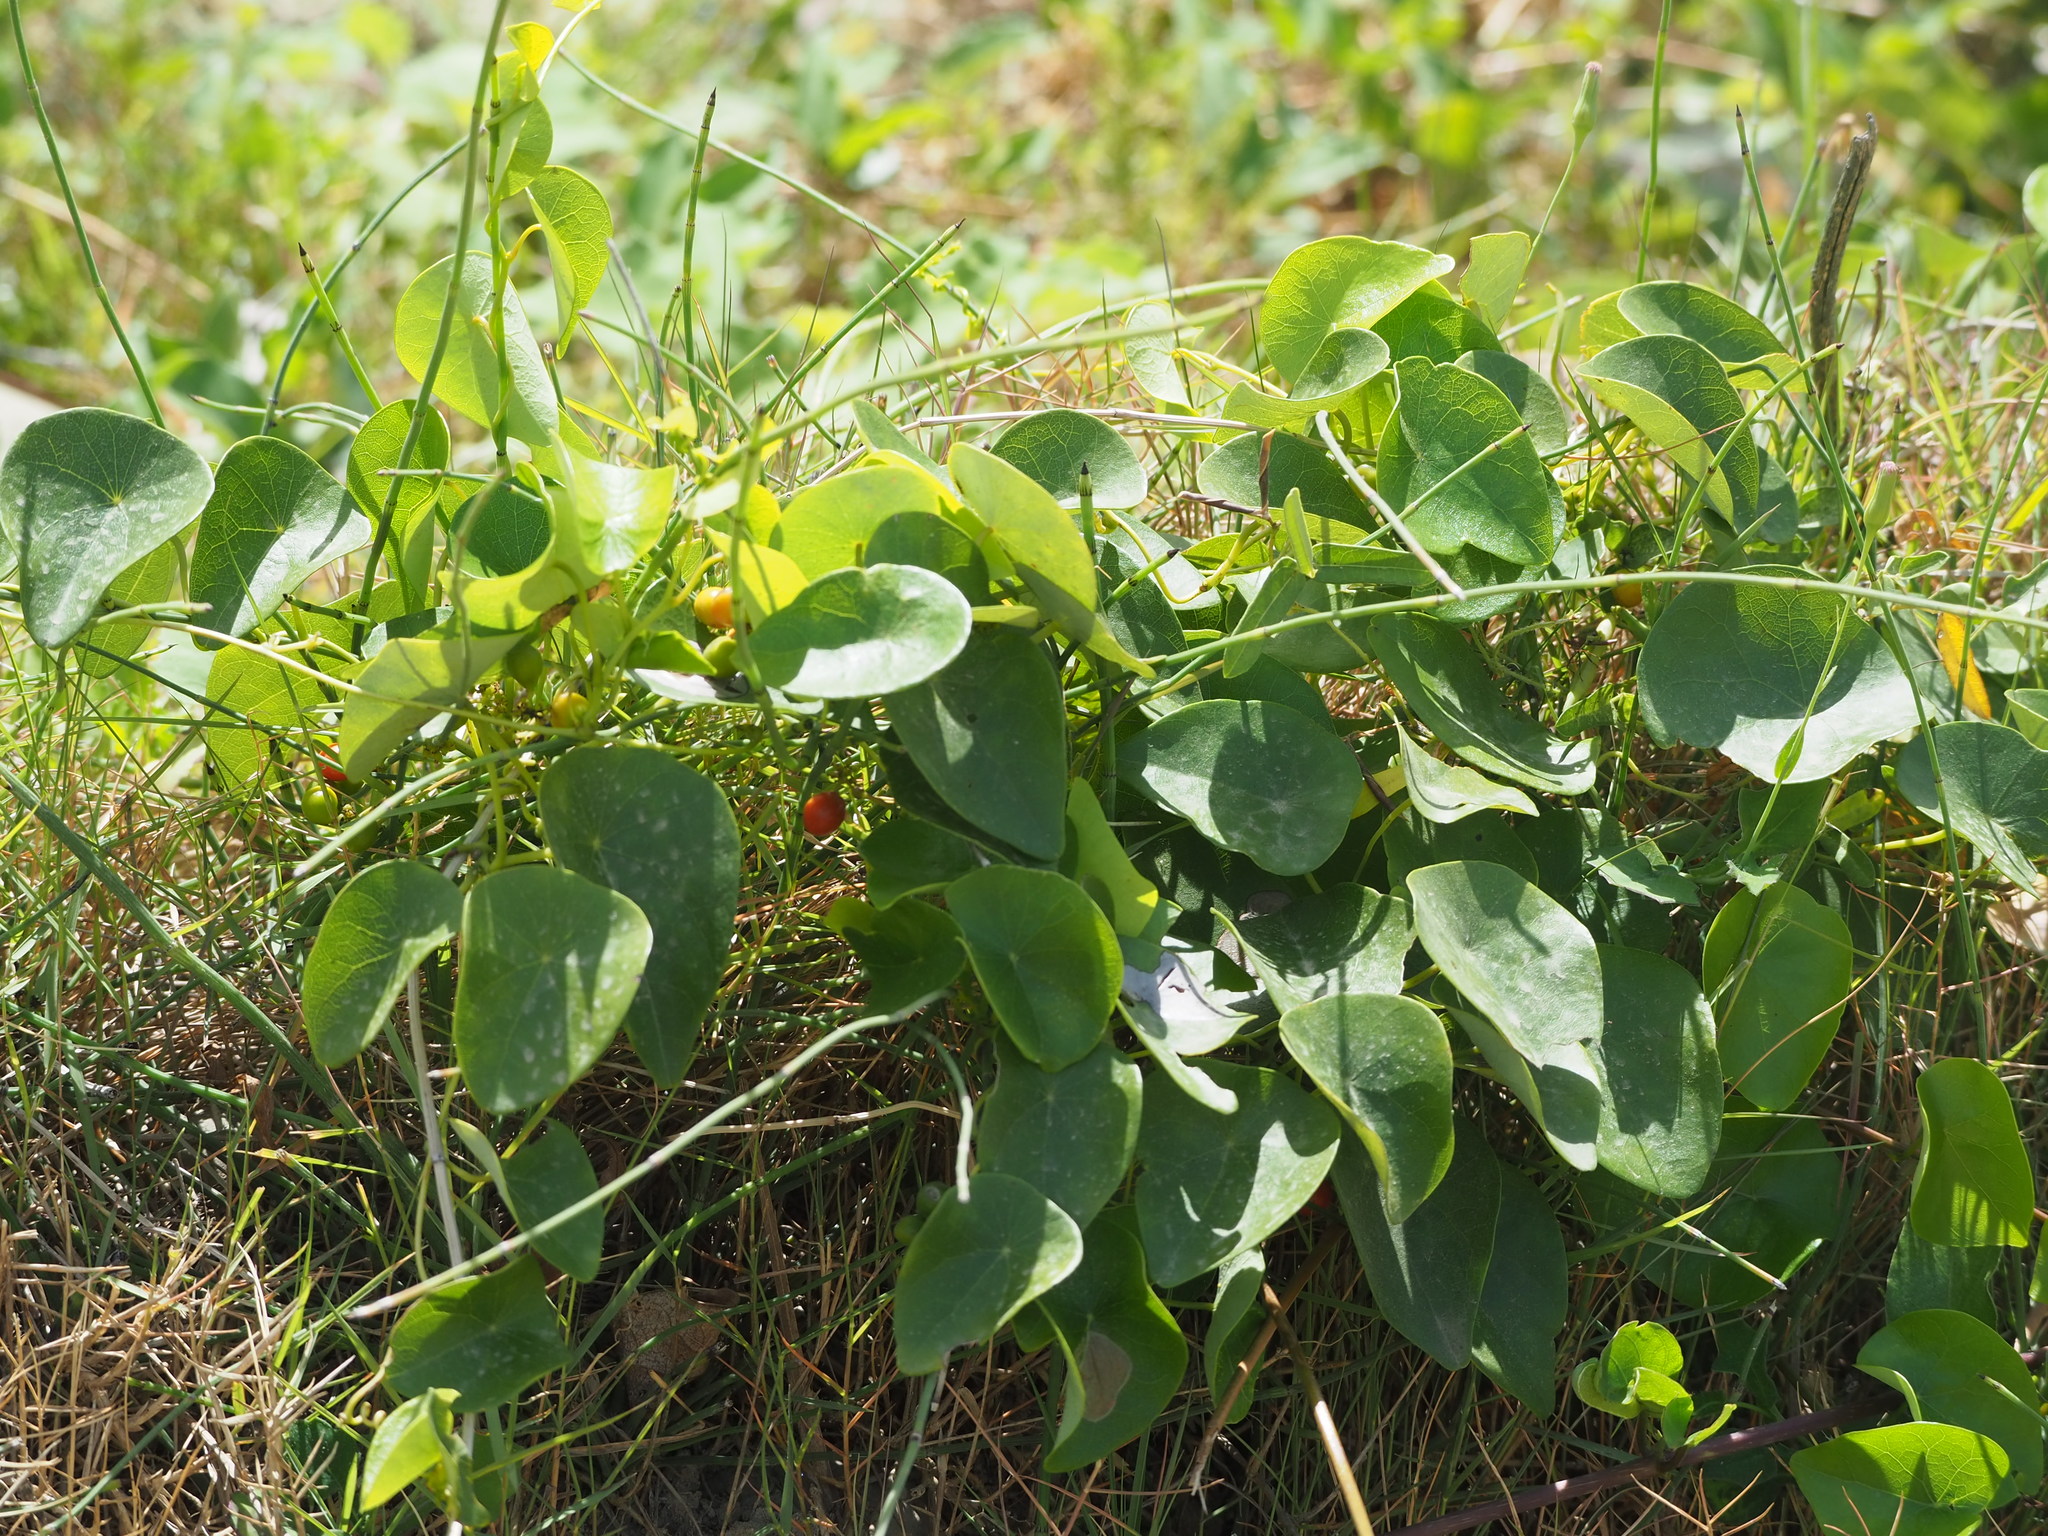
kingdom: Plantae
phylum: Tracheophyta
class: Magnoliopsida
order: Ranunculales
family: Menispermaceae
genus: Stephania
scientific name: Stephania japonica
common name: Snake vine
